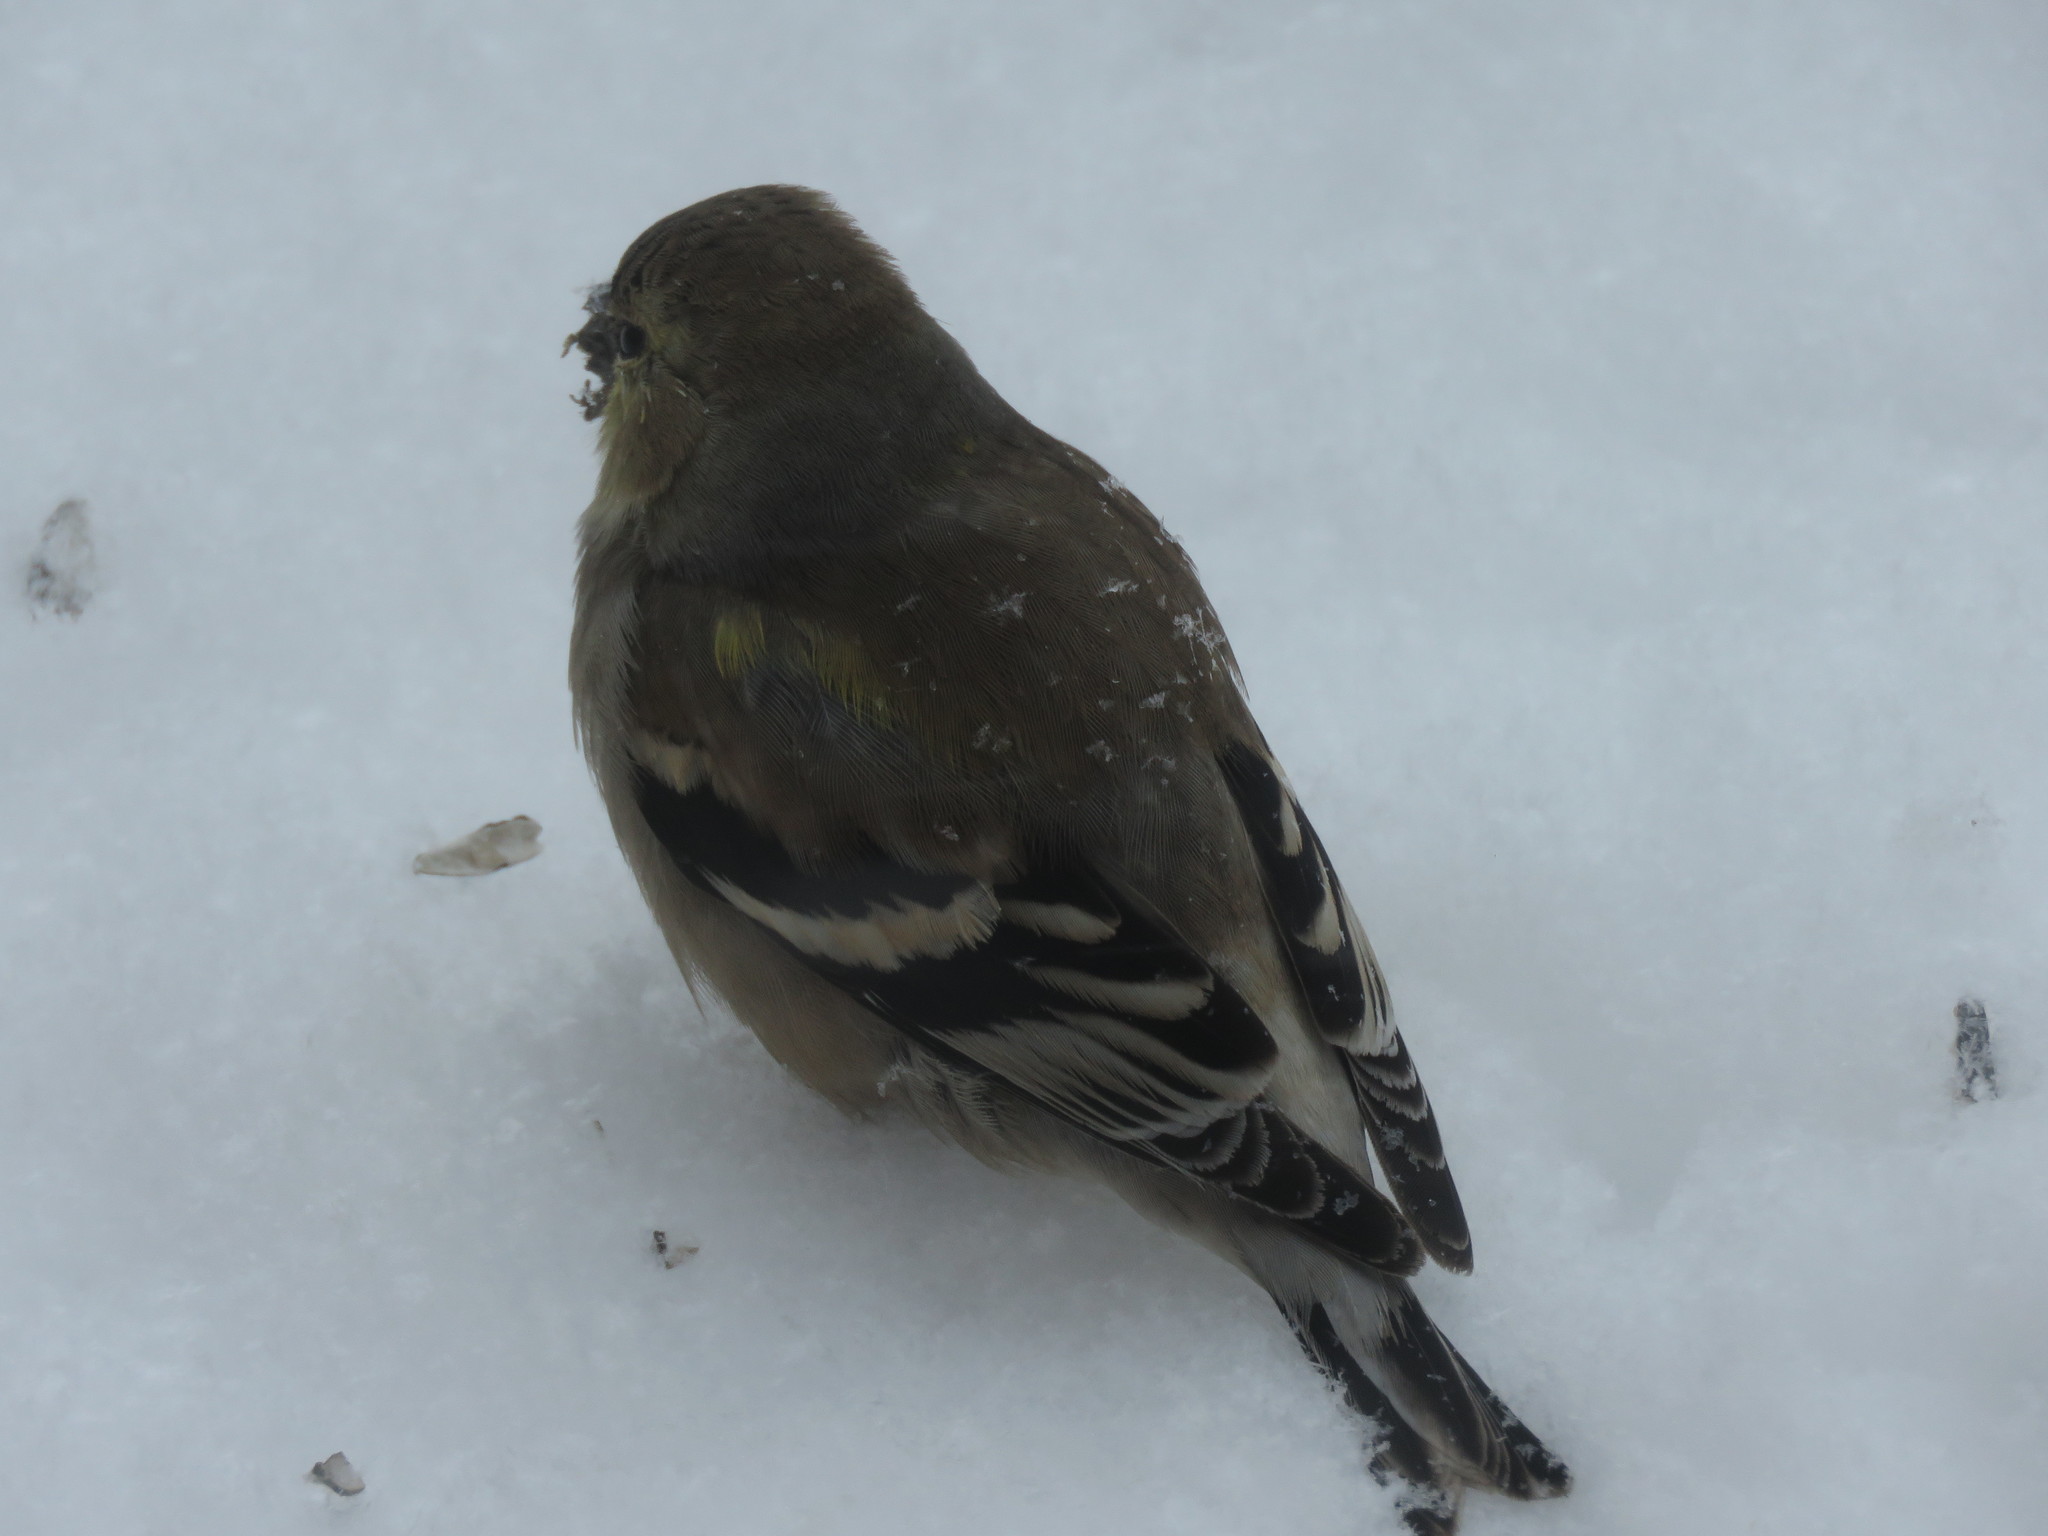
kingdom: Animalia
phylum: Chordata
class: Aves
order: Passeriformes
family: Fringillidae
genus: Spinus
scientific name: Spinus tristis
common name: American goldfinch
